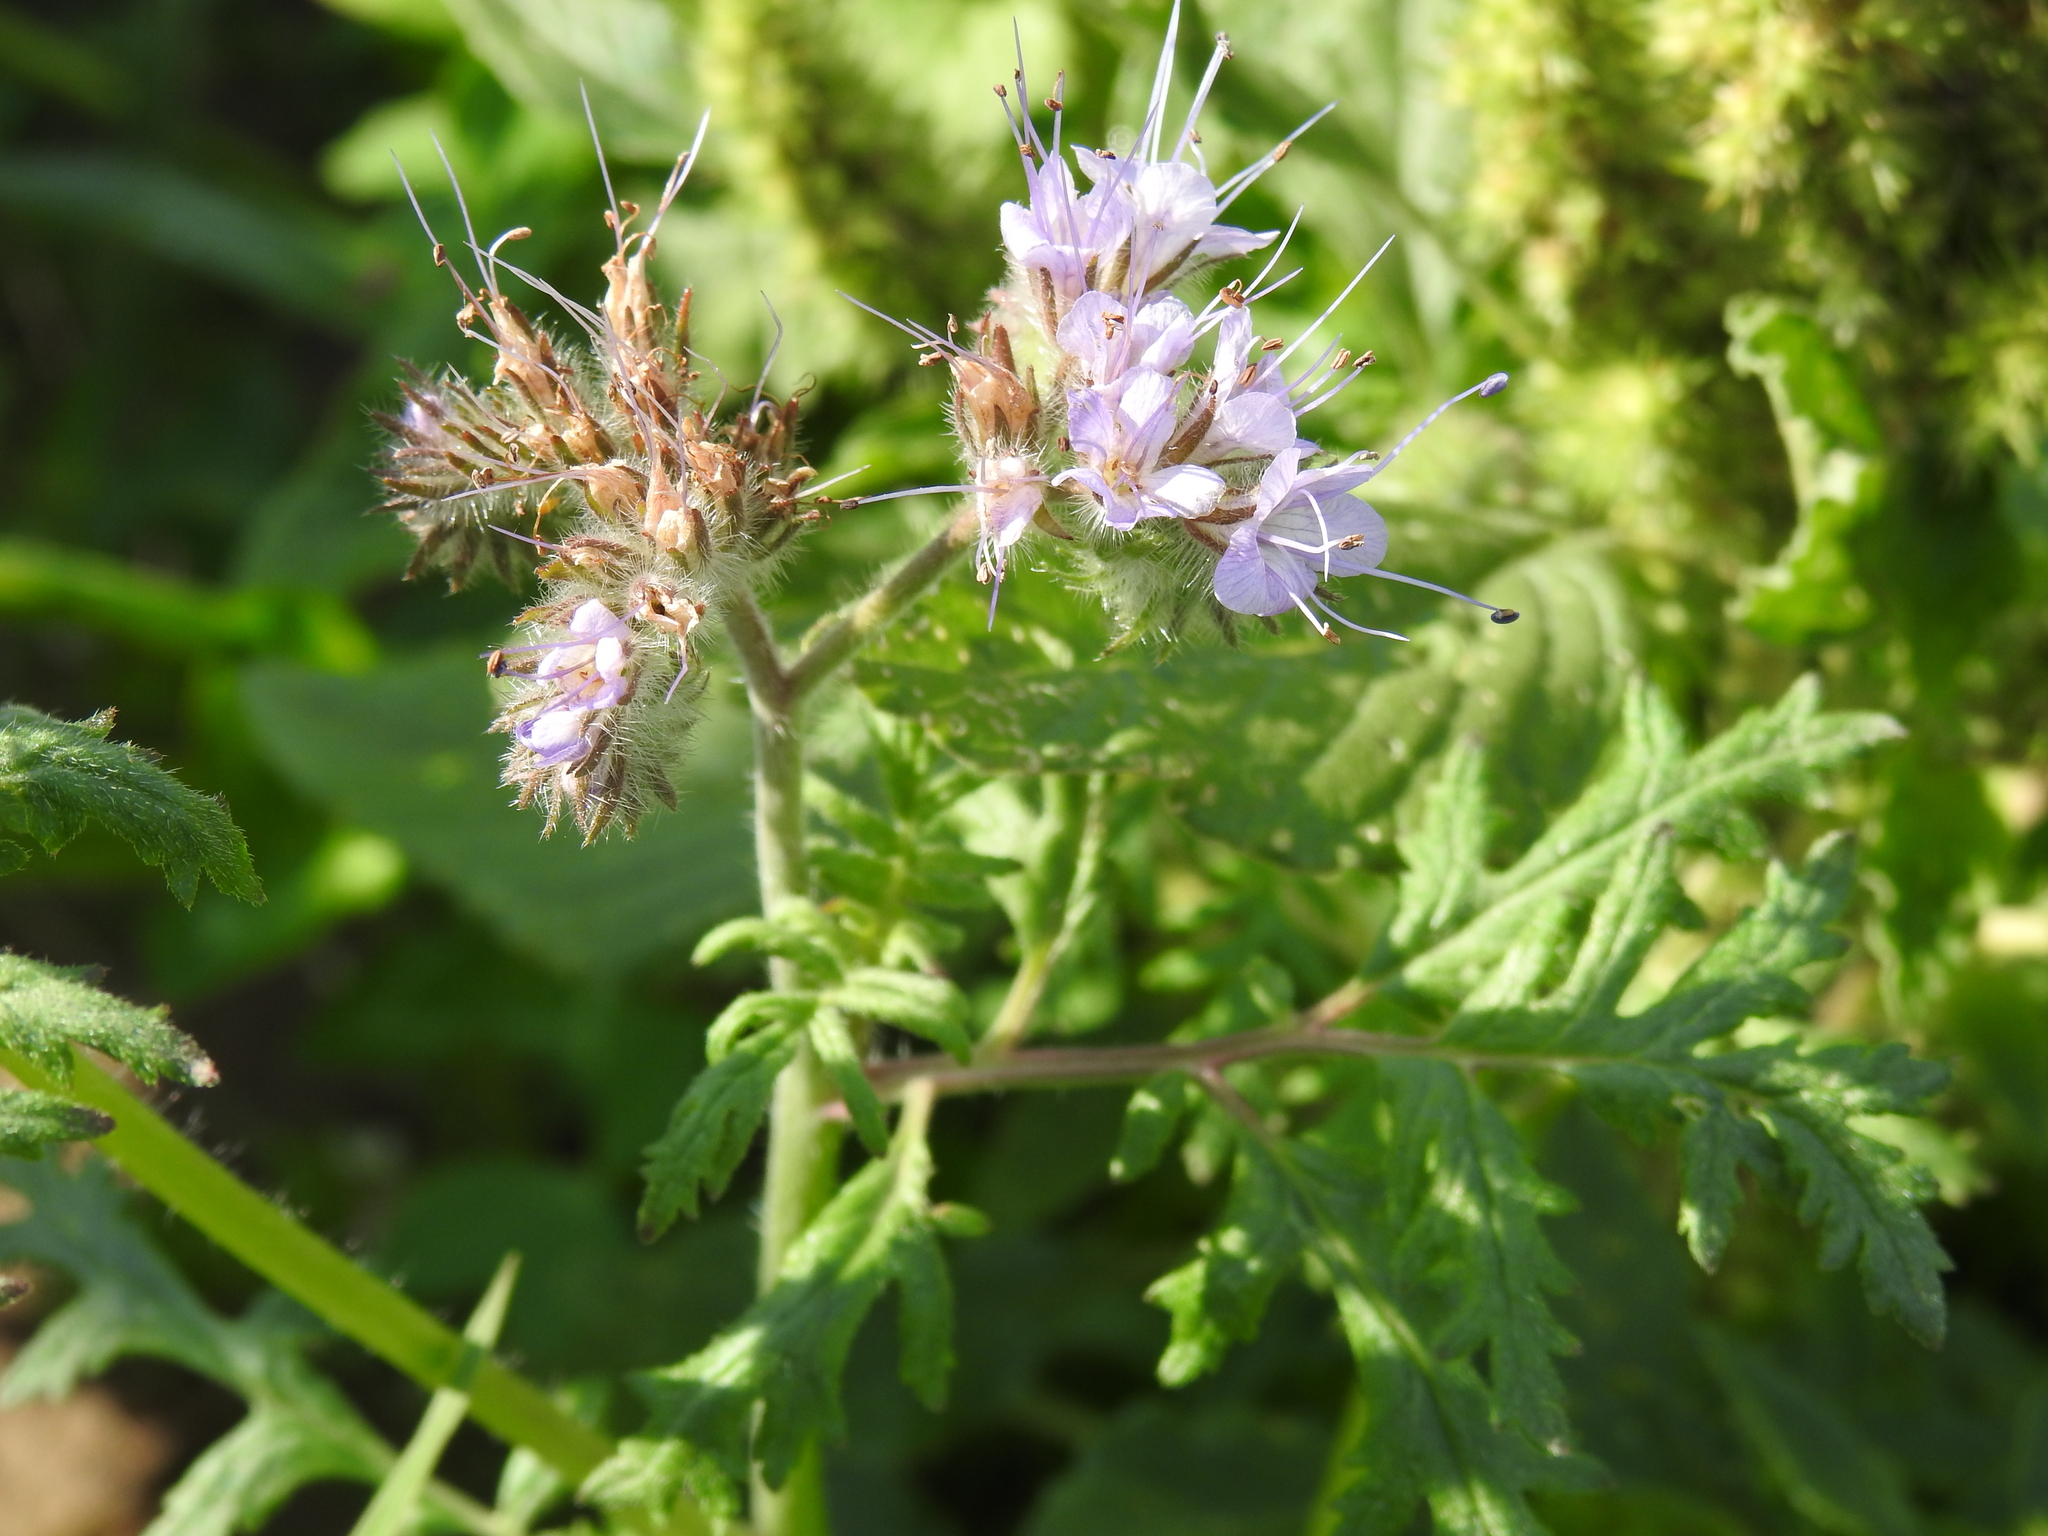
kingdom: Plantae
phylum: Tracheophyta
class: Magnoliopsida
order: Boraginales
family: Hydrophyllaceae
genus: Phacelia
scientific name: Phacelia tanacetifolia
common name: Phacelia
